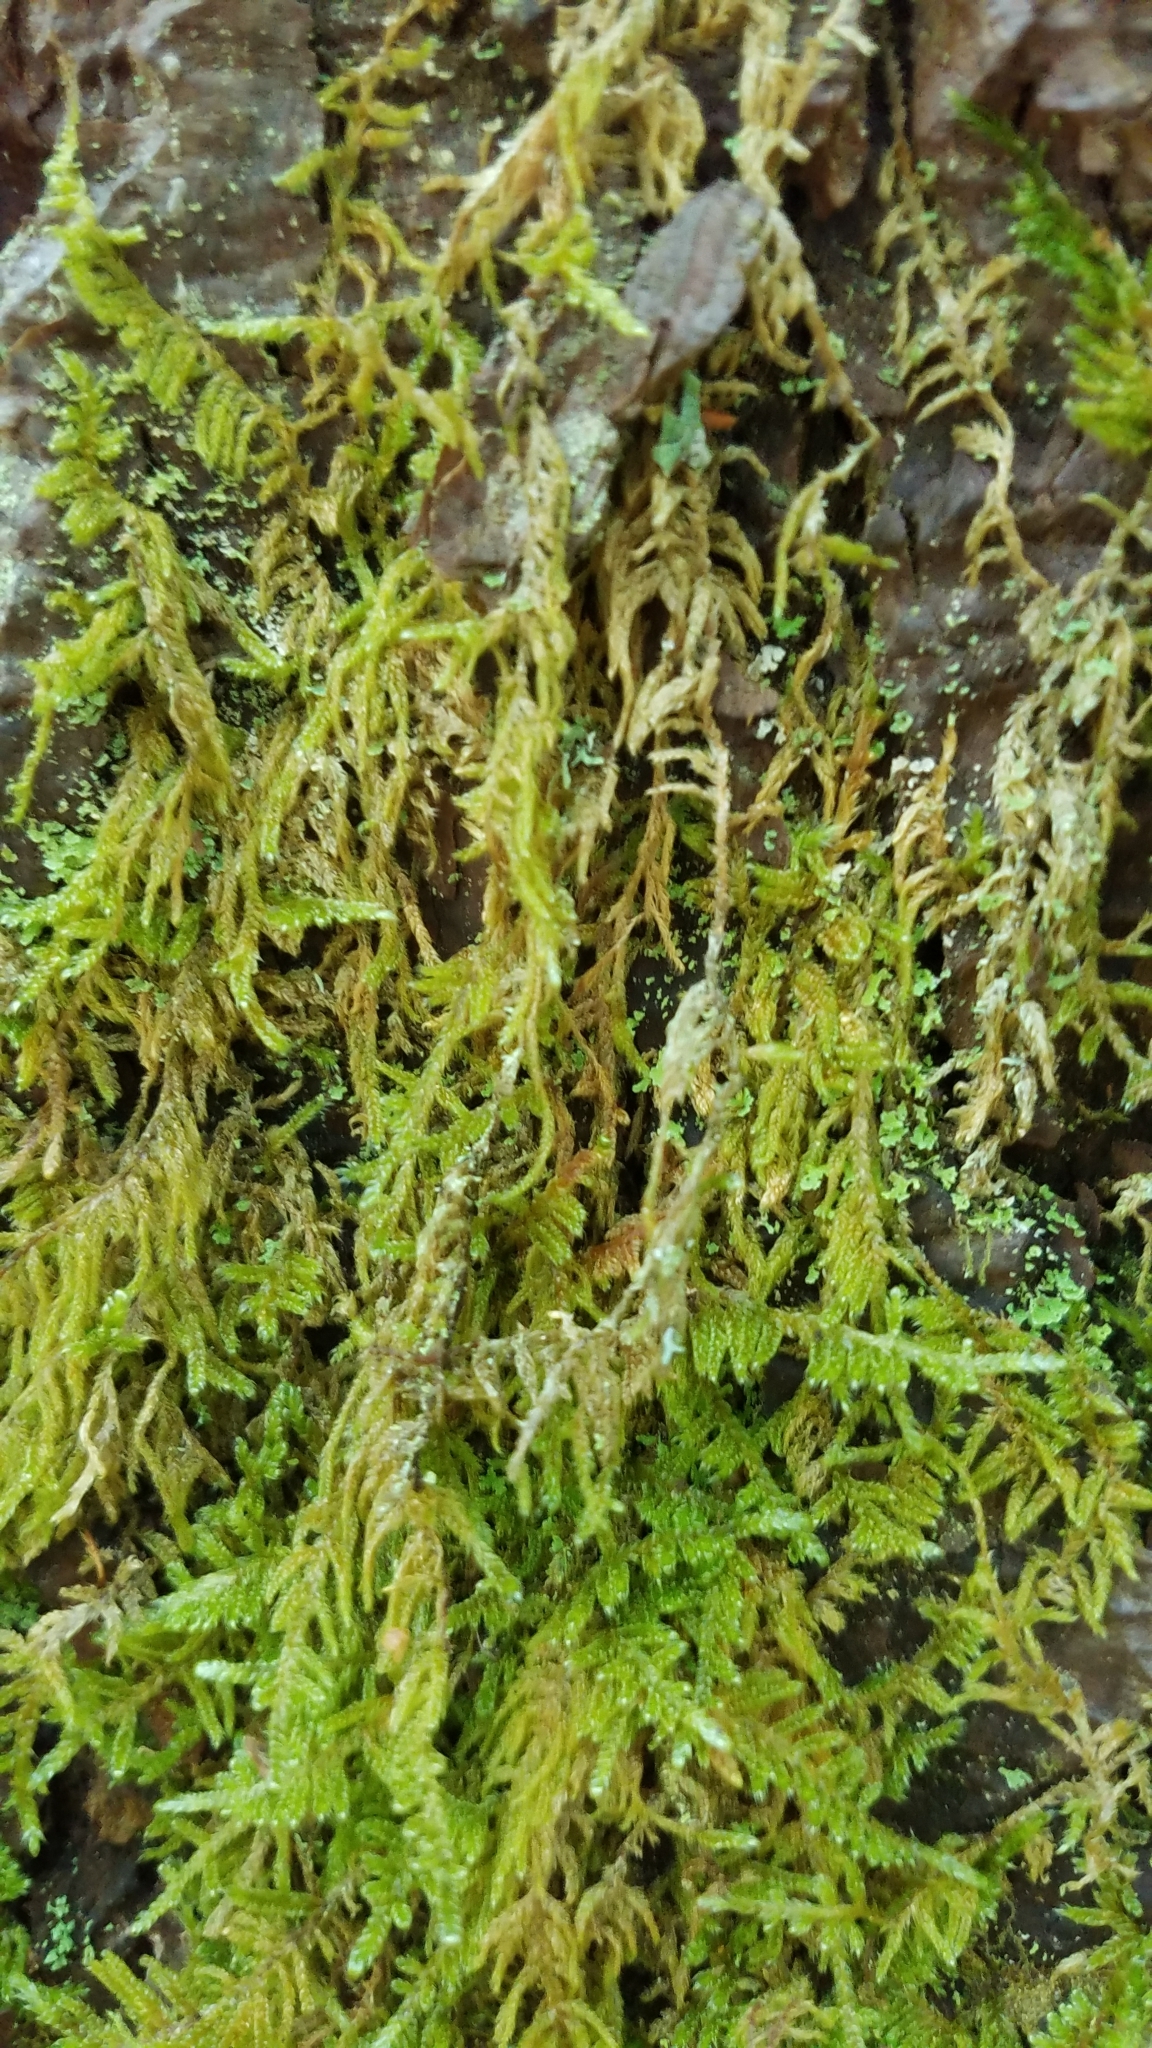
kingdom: Plantae
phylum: Bryophyta
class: Bryopsida
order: Hypnales
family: Hypnaceae
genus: Hypnum
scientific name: Hypnum cupressiforme
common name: Cypress-leaved plait-moss
